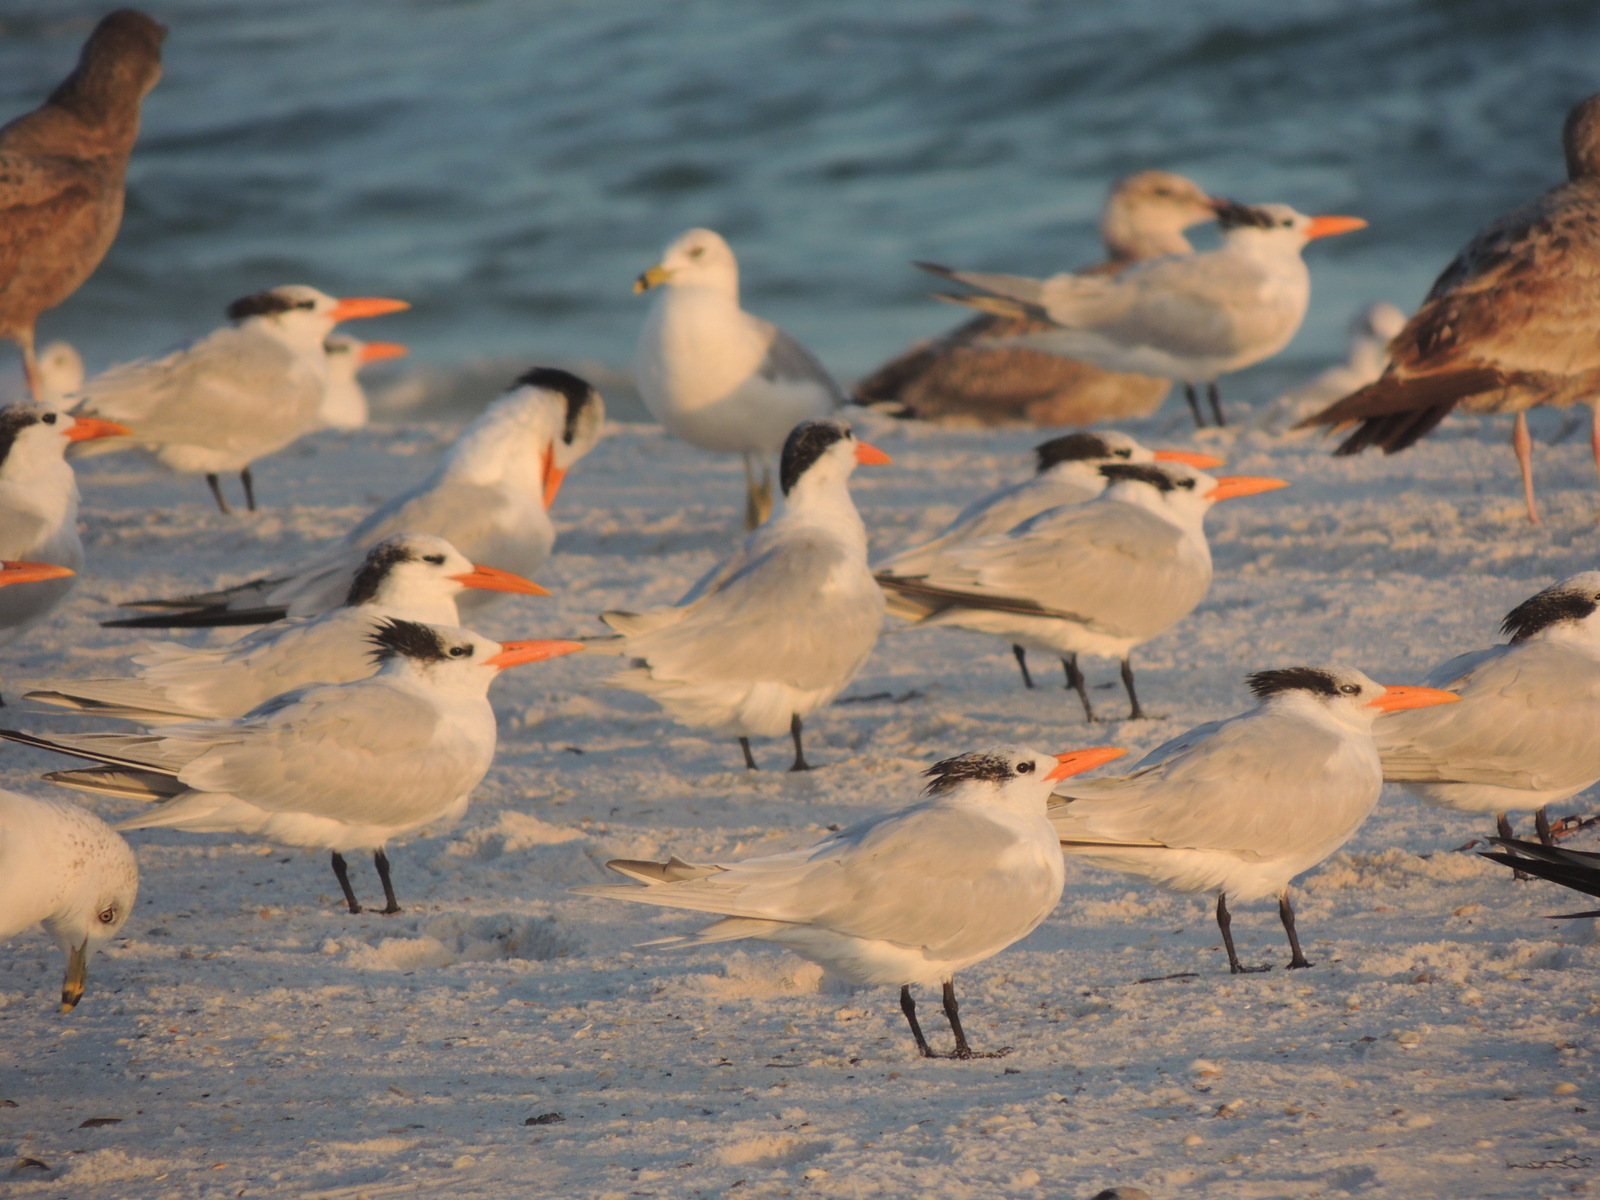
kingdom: Animalia
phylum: Chordata
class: Aves
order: Charadriiformes
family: Laridae
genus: Thalasseus
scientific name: Thalasseus maximus
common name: Royal tern
